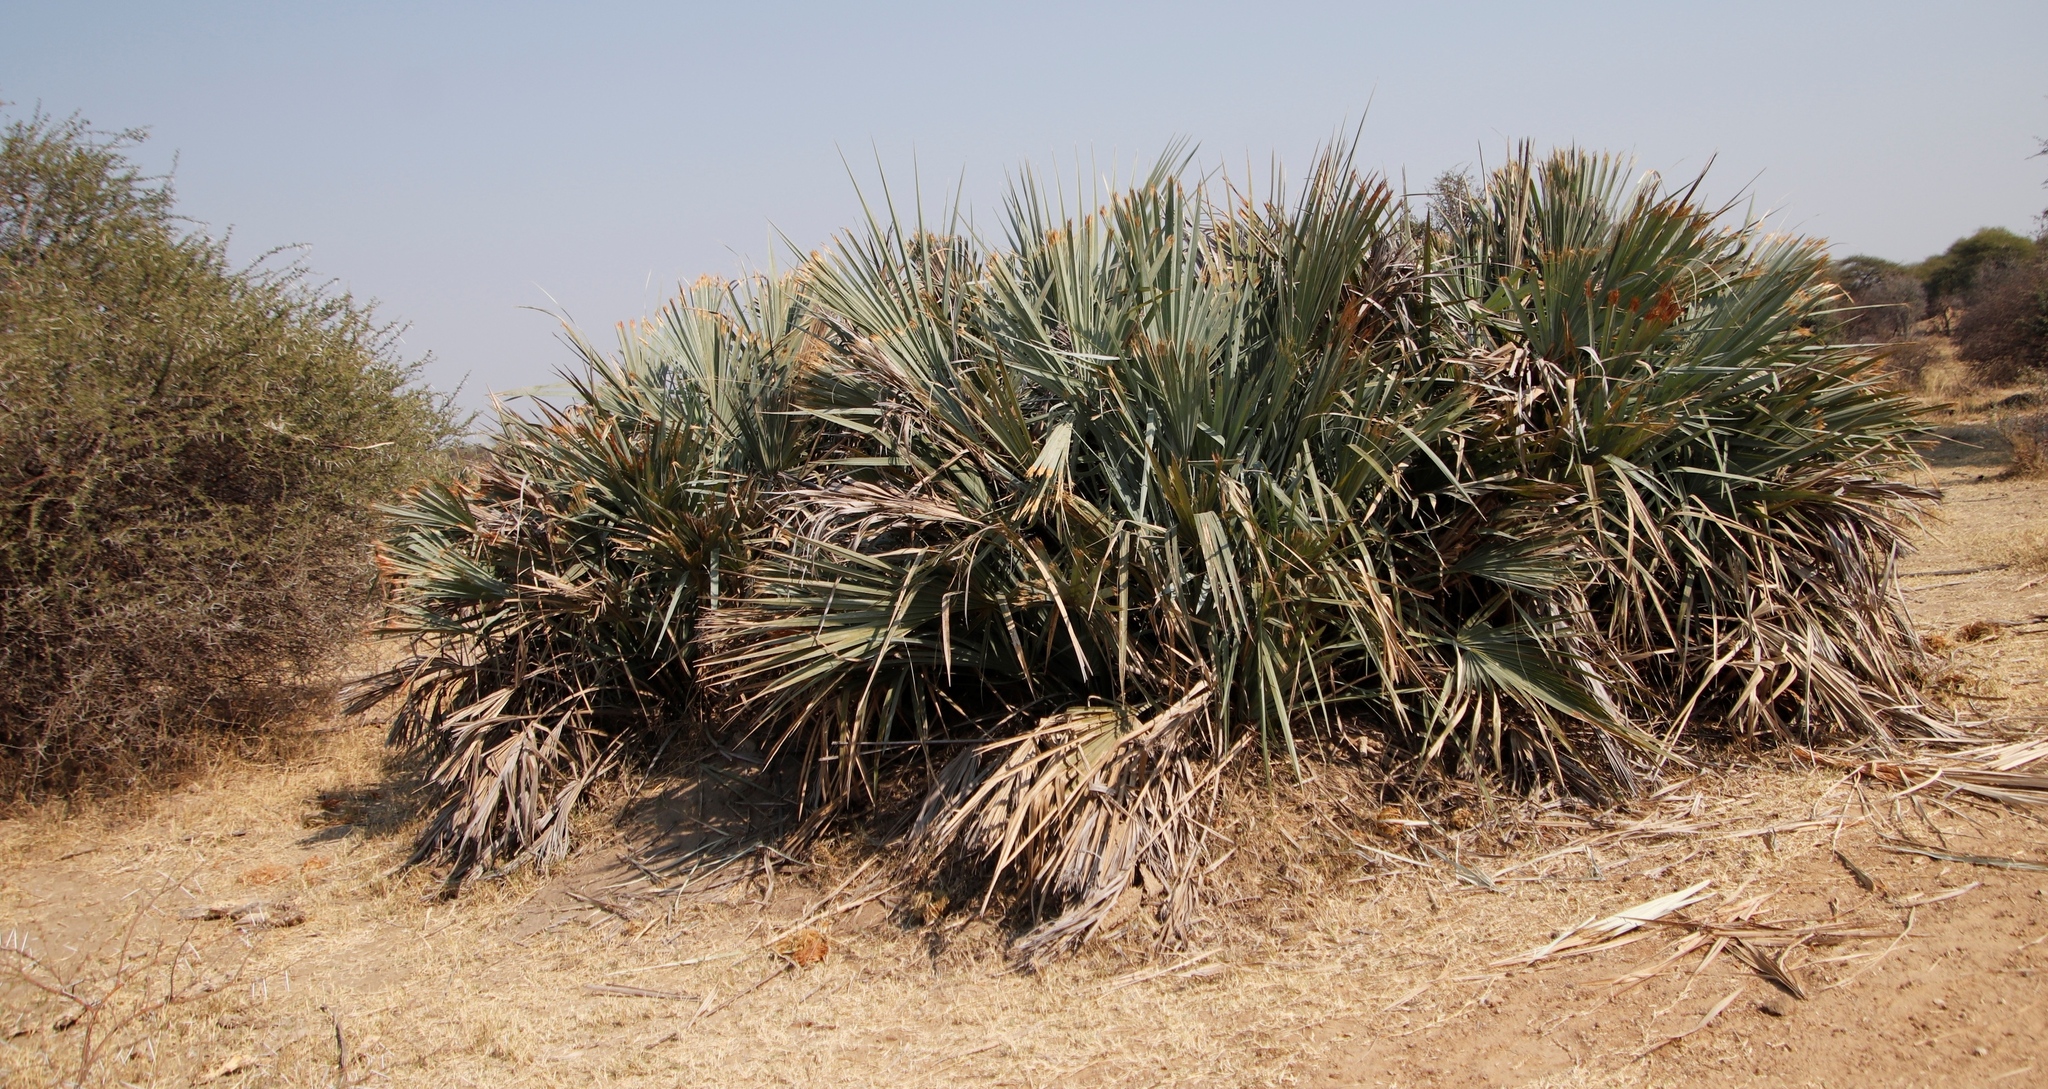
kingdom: Plantae
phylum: Tracheophyta
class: Liliopsida
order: Arecales
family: Arecaceae
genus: Hyphaene
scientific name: Hyphaene petersiana
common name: African ivory nut palm
